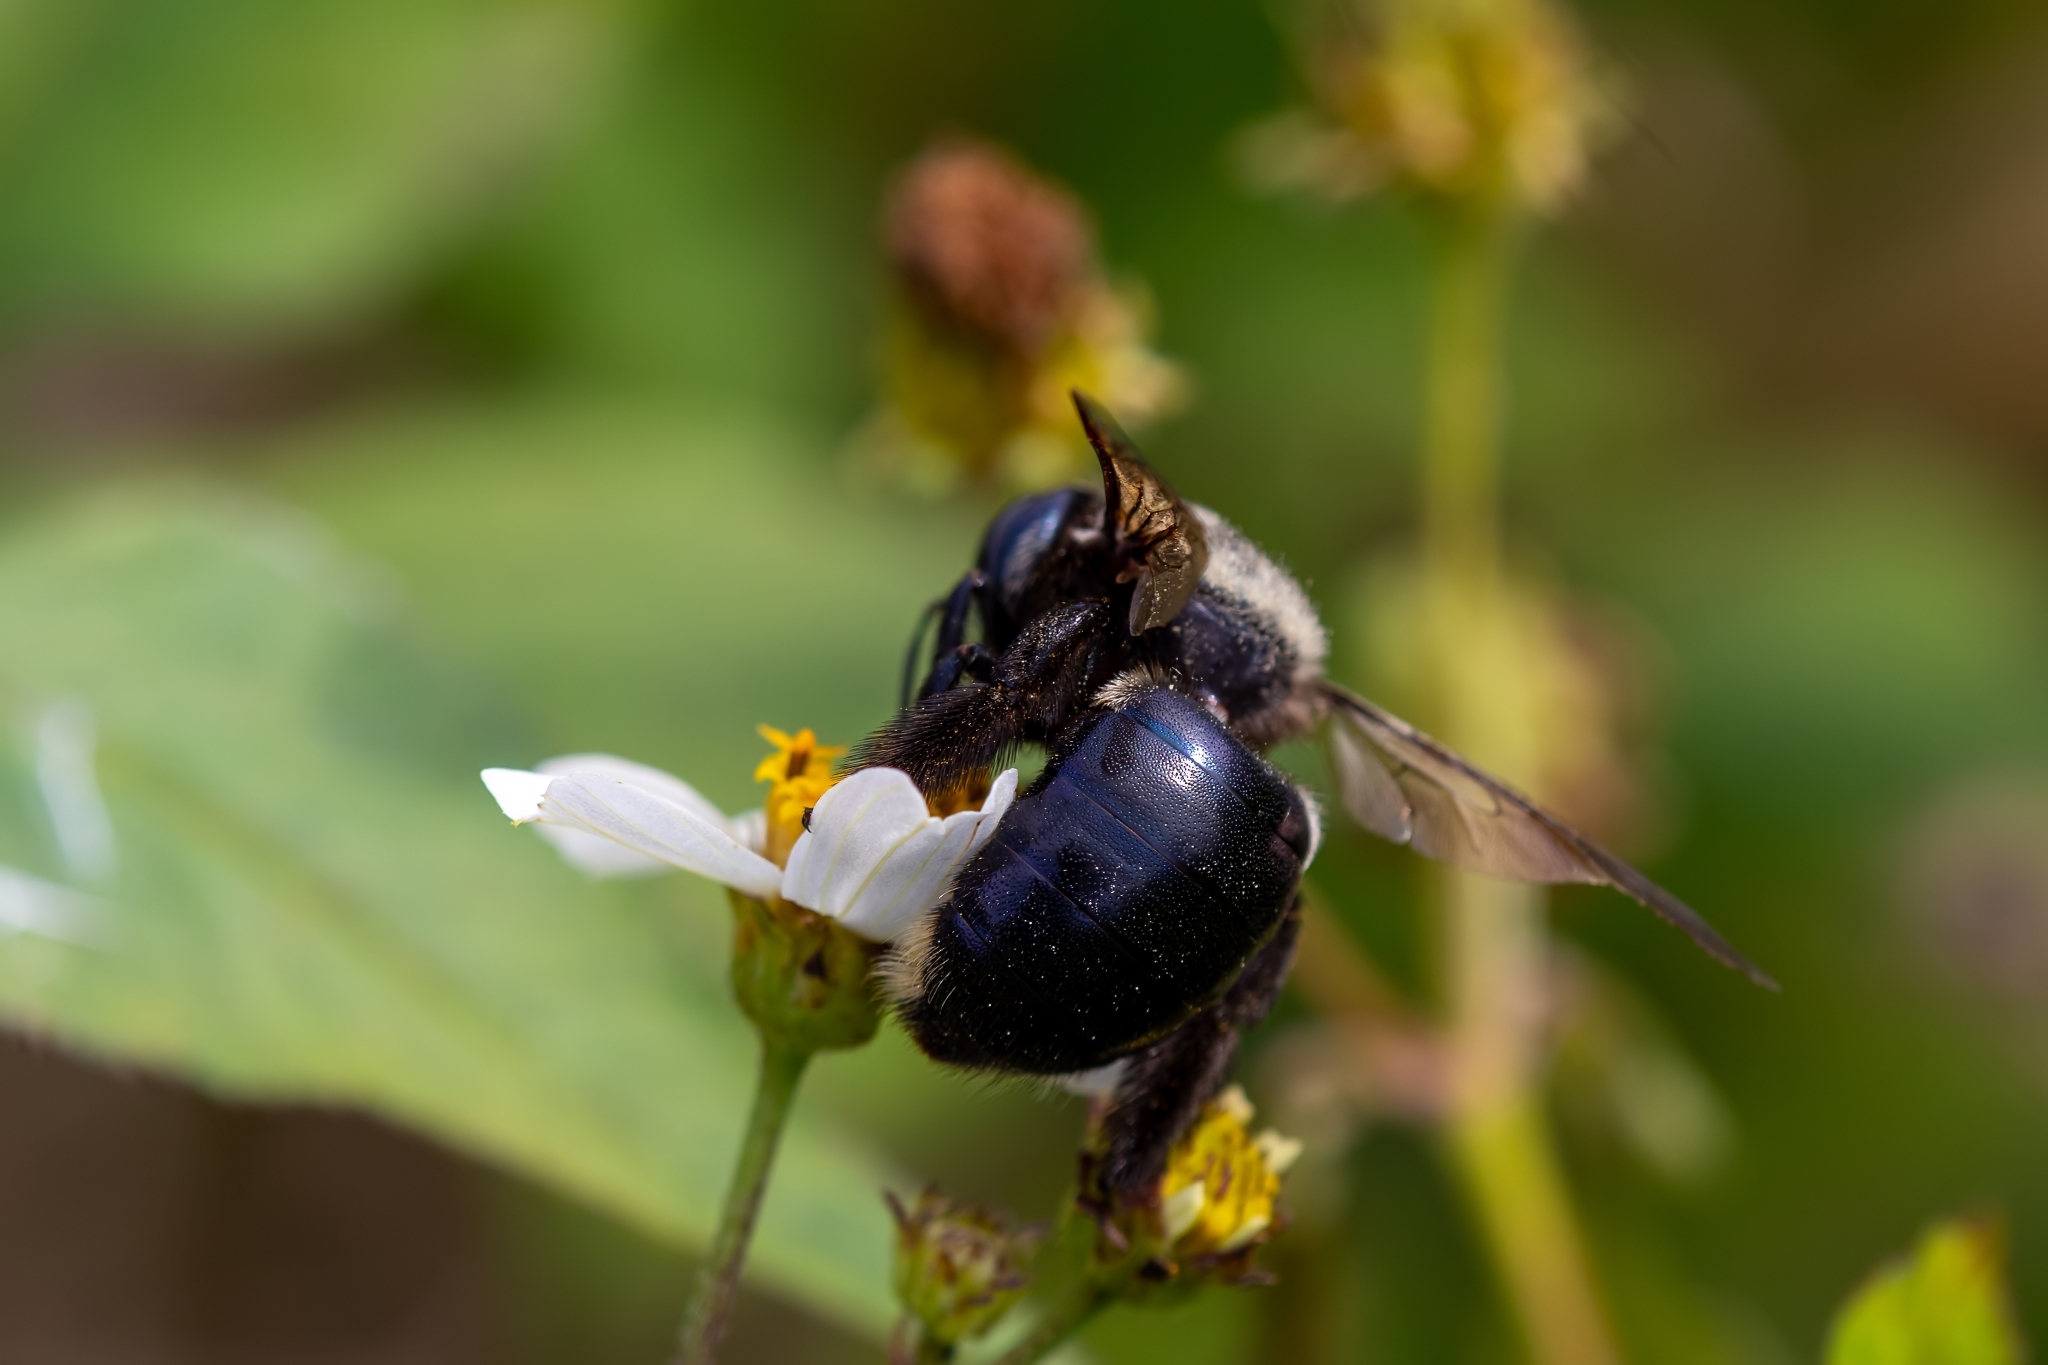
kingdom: Animalia
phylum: Arthropoda
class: Insecta
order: Hymenoptera
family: Apidae
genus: Xylocopa
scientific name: Xylocopa micans
